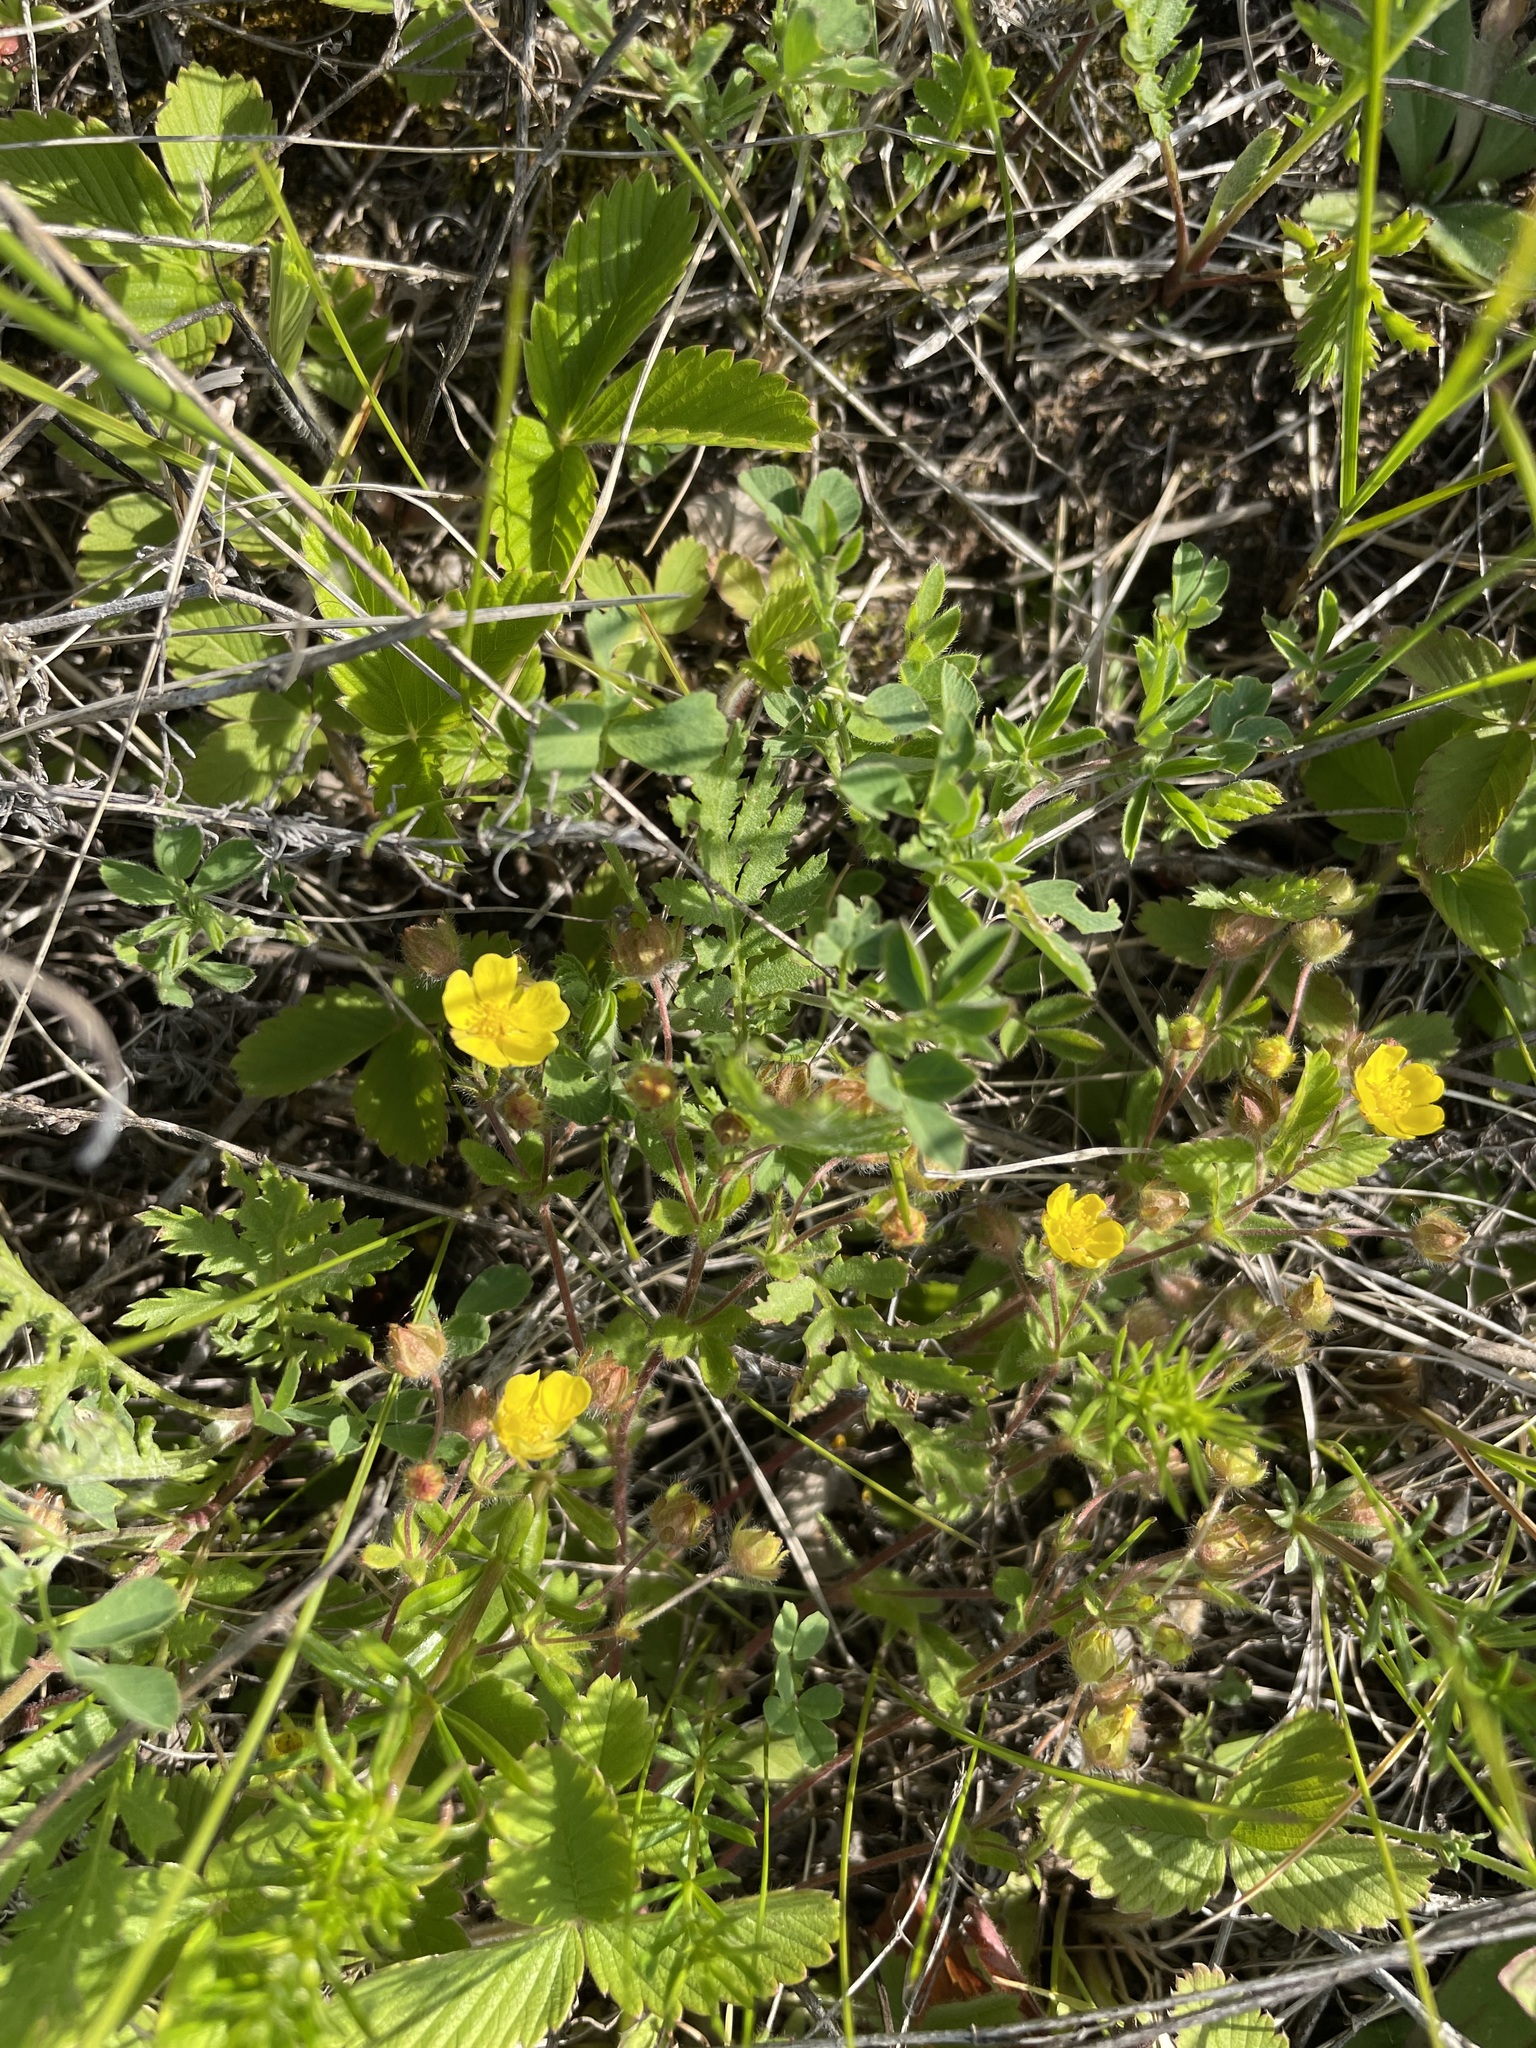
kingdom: Plantae
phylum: Tracheophyta
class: Magnoliopsida
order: Rosales
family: Rosaceae
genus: Potentilla
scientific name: Potentilla humifusa
